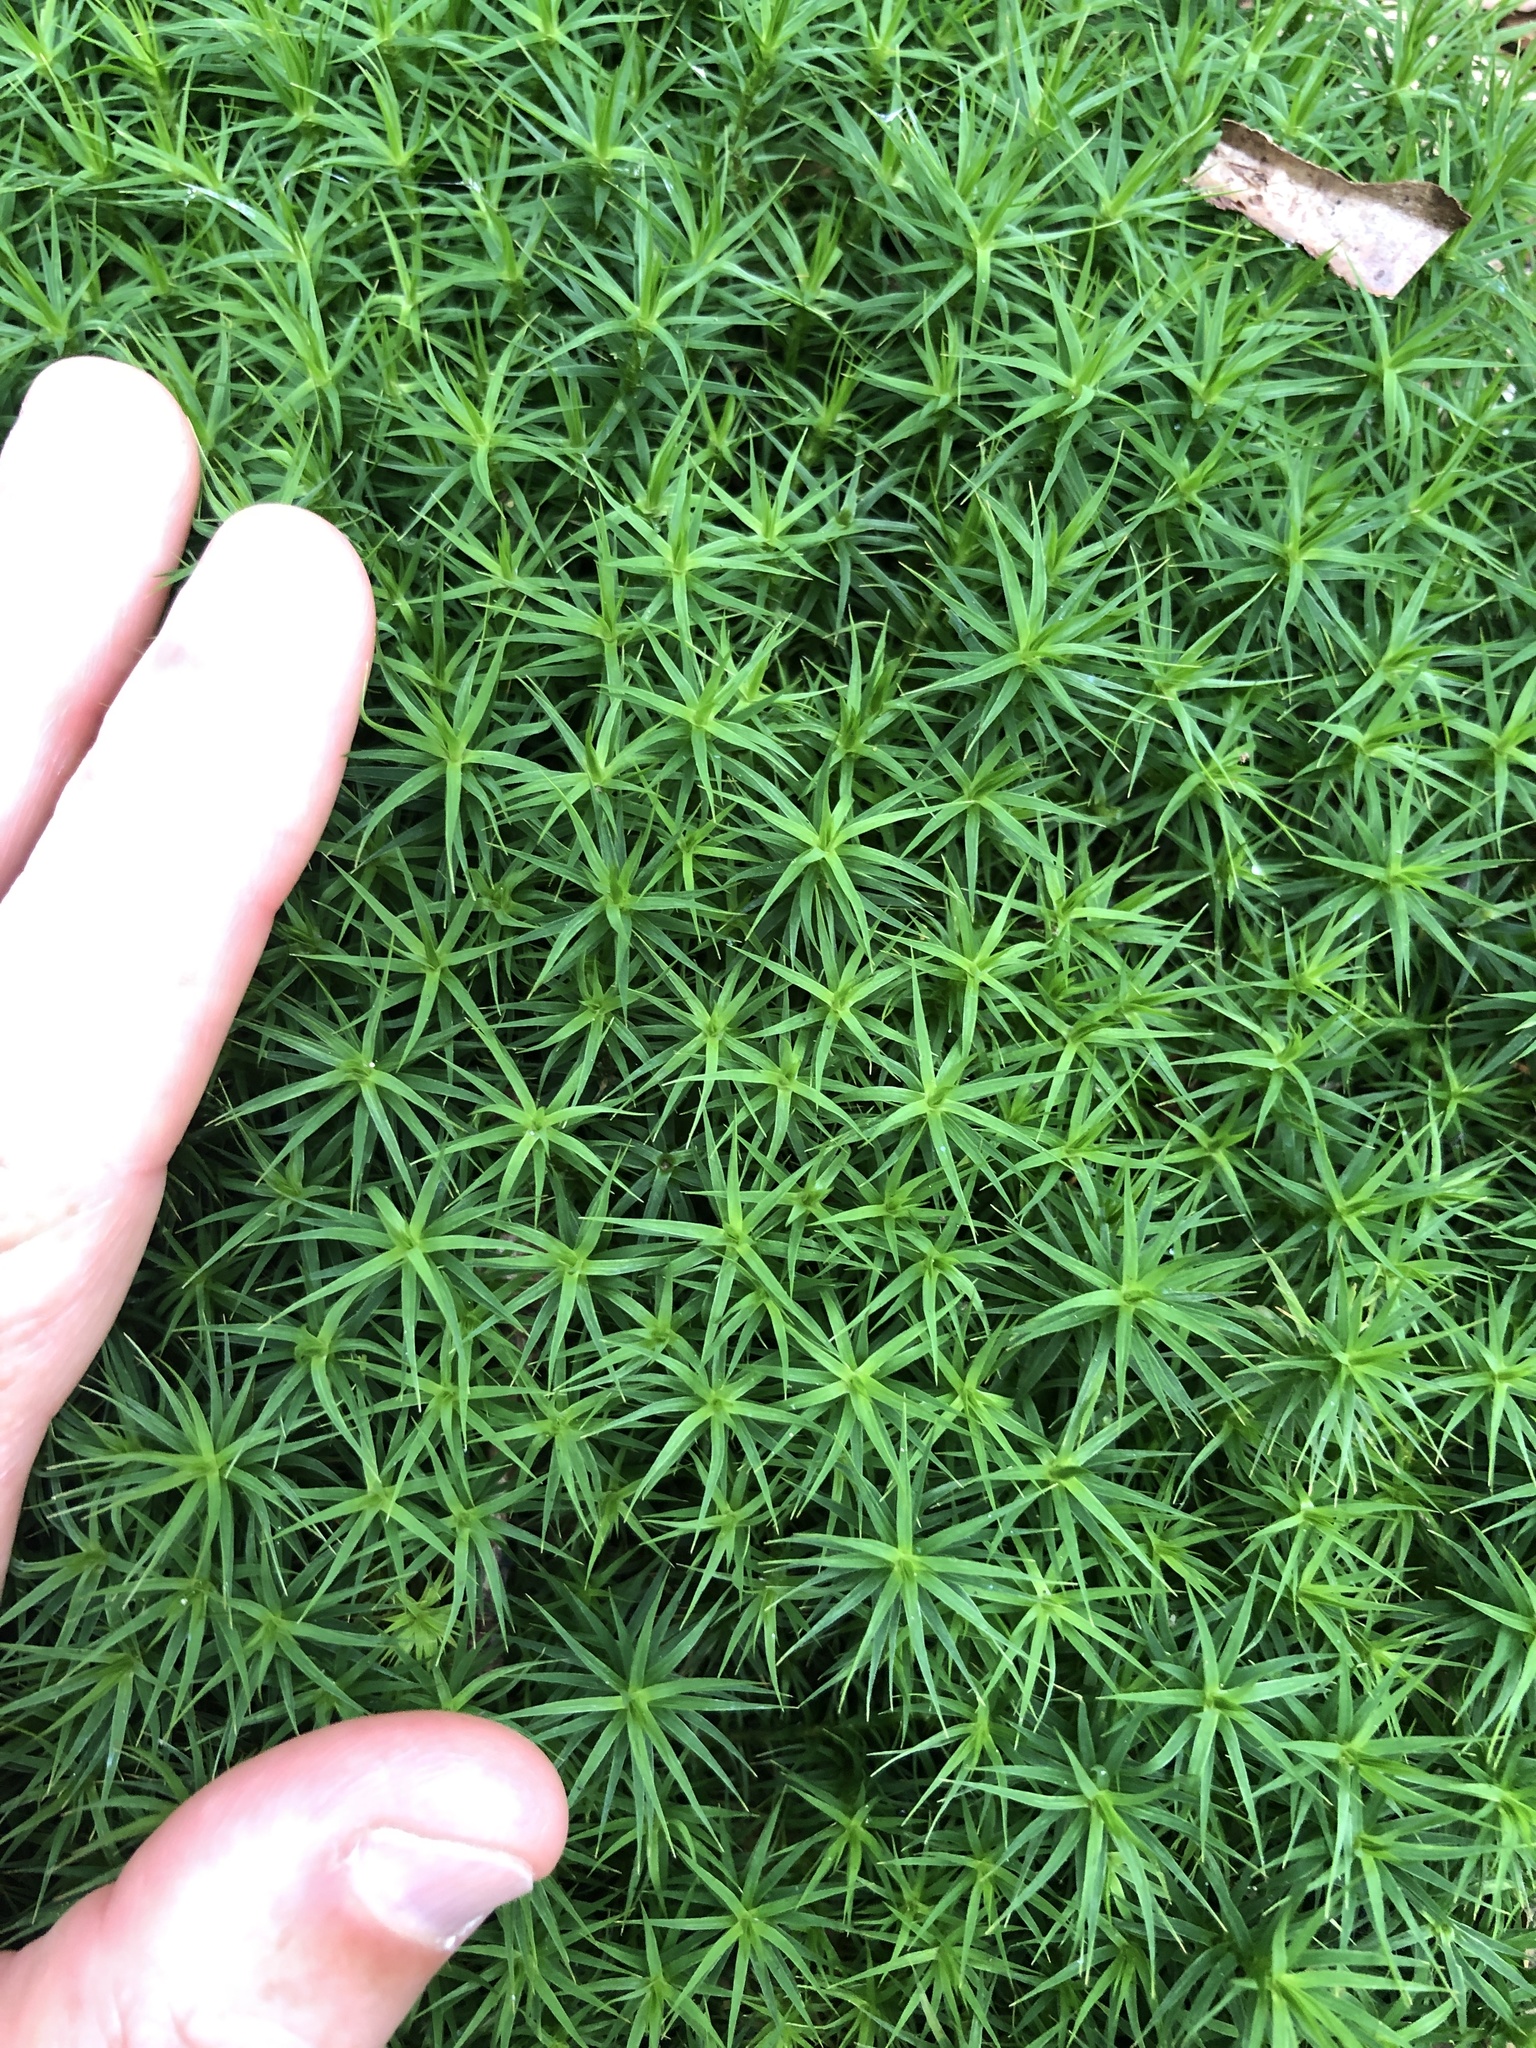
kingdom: Plantae
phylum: Bryophyta
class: Polytrichopsida
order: Polytrichales
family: Polytrichaceae
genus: Polytrichum
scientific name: Polytrichum formosum
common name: Bank haircap moss
